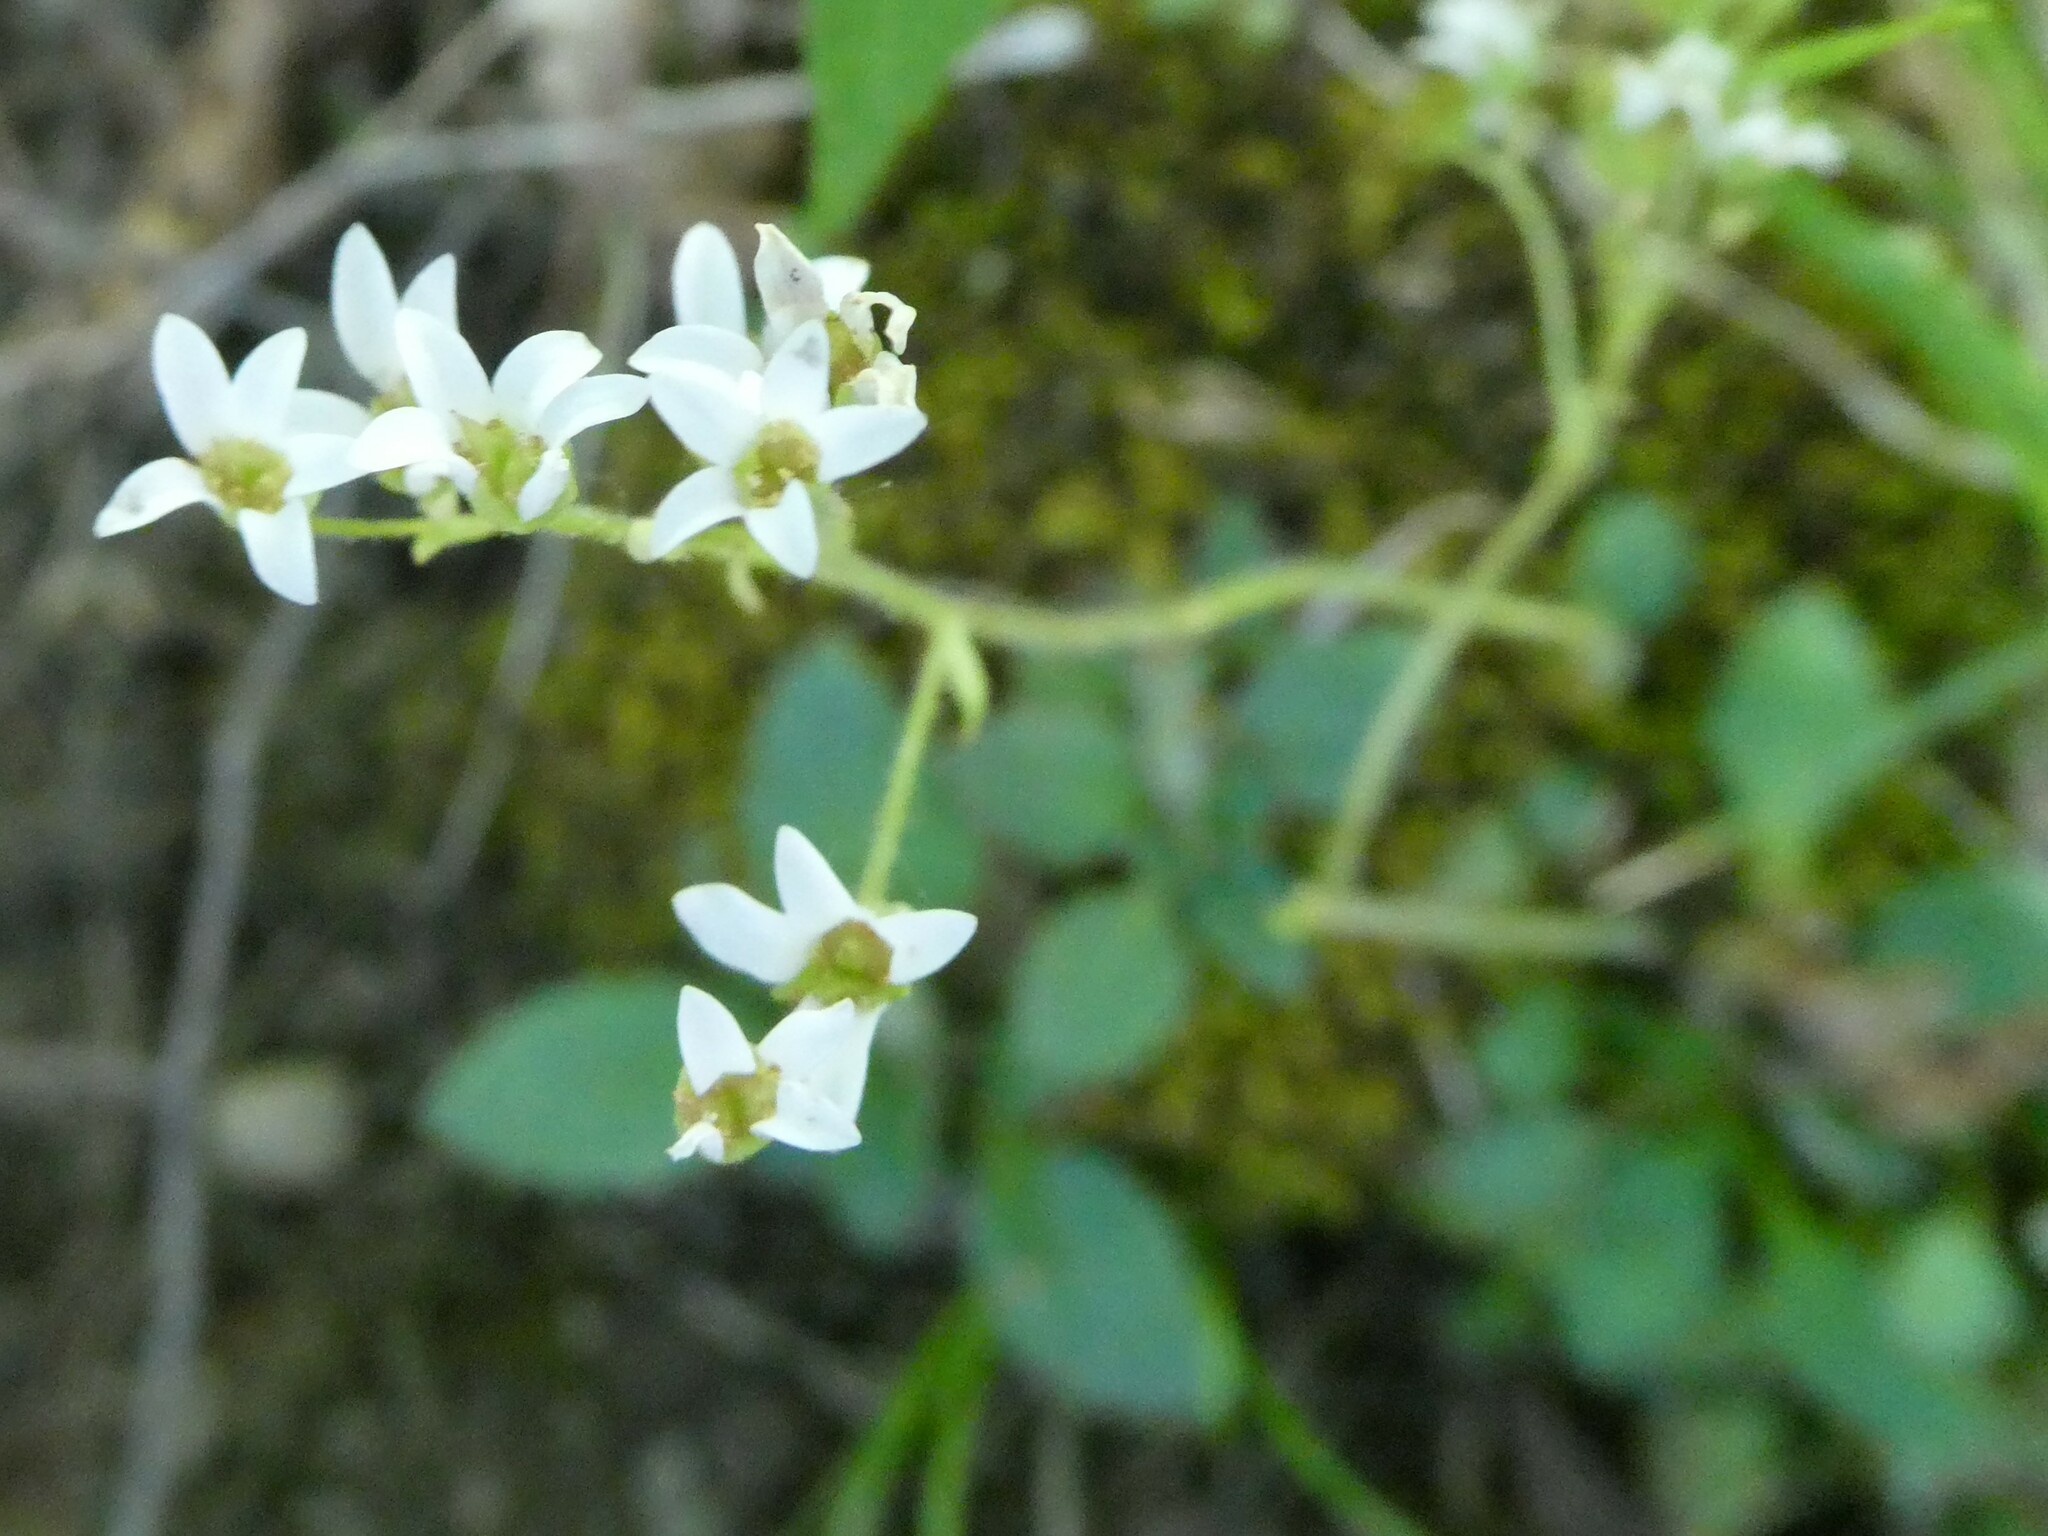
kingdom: Plantae
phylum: Tracheophyta
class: Magnoliopsida
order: Saxifragales
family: Saxifragaceae
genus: Micranthes
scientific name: Micranthes virginiensis
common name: Early saxifrage
